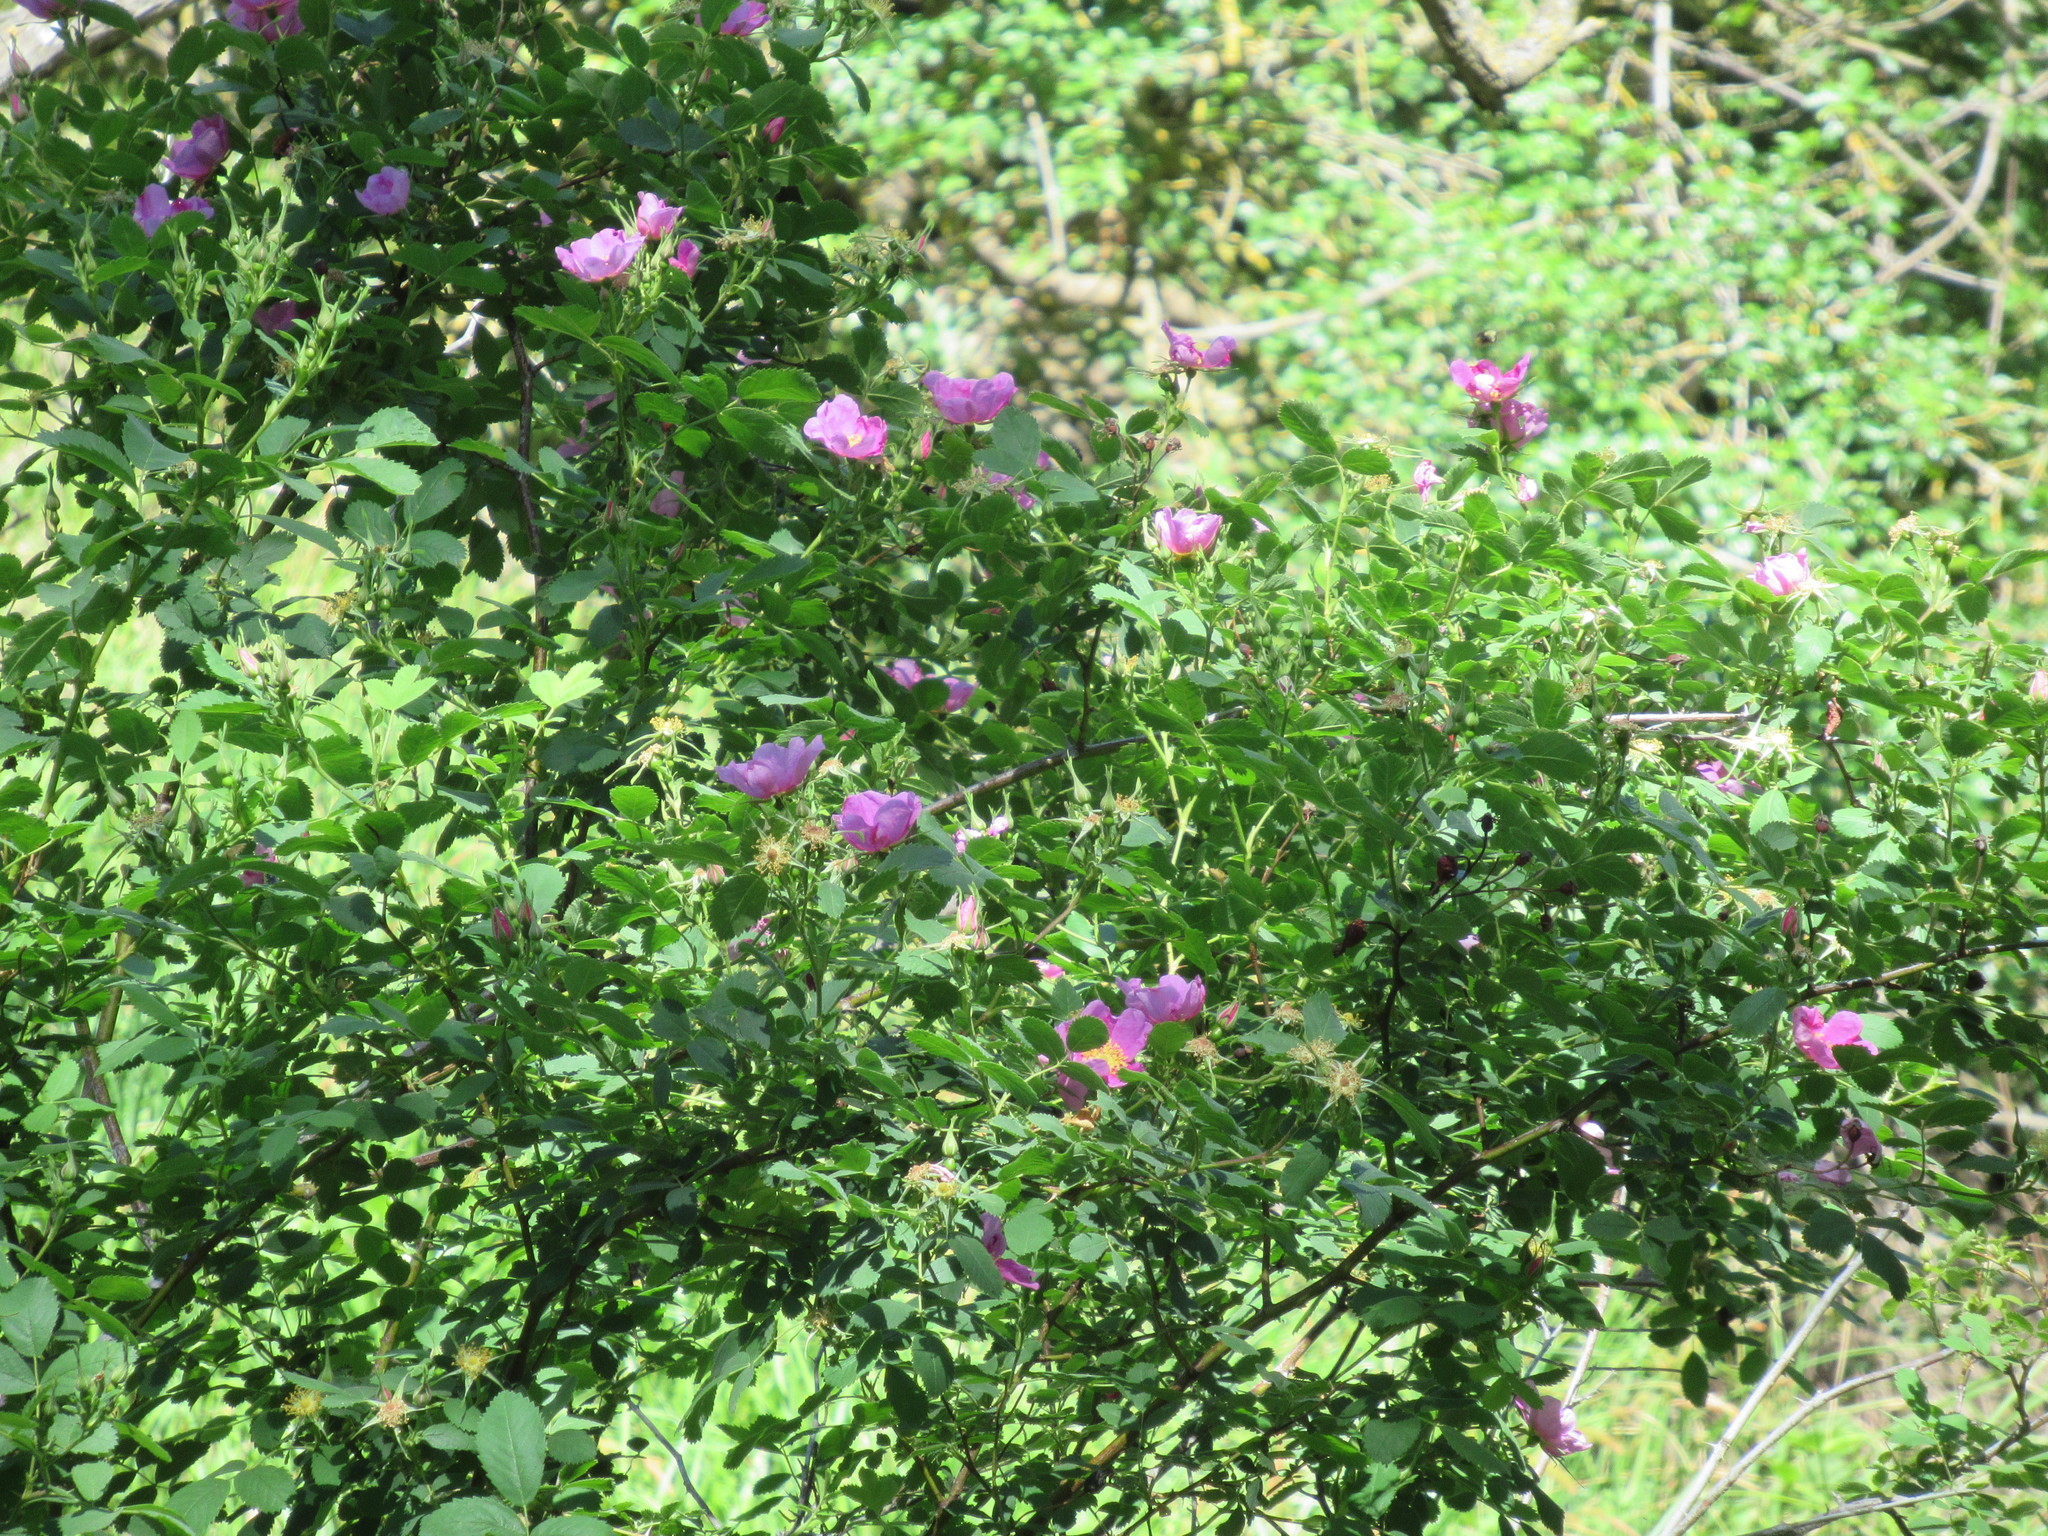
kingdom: Plantae
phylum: Tracheophyta
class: Magnoliopsida
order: Rosales
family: Rosaceae
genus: Rosa
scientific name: Rosa californica
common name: California rose
